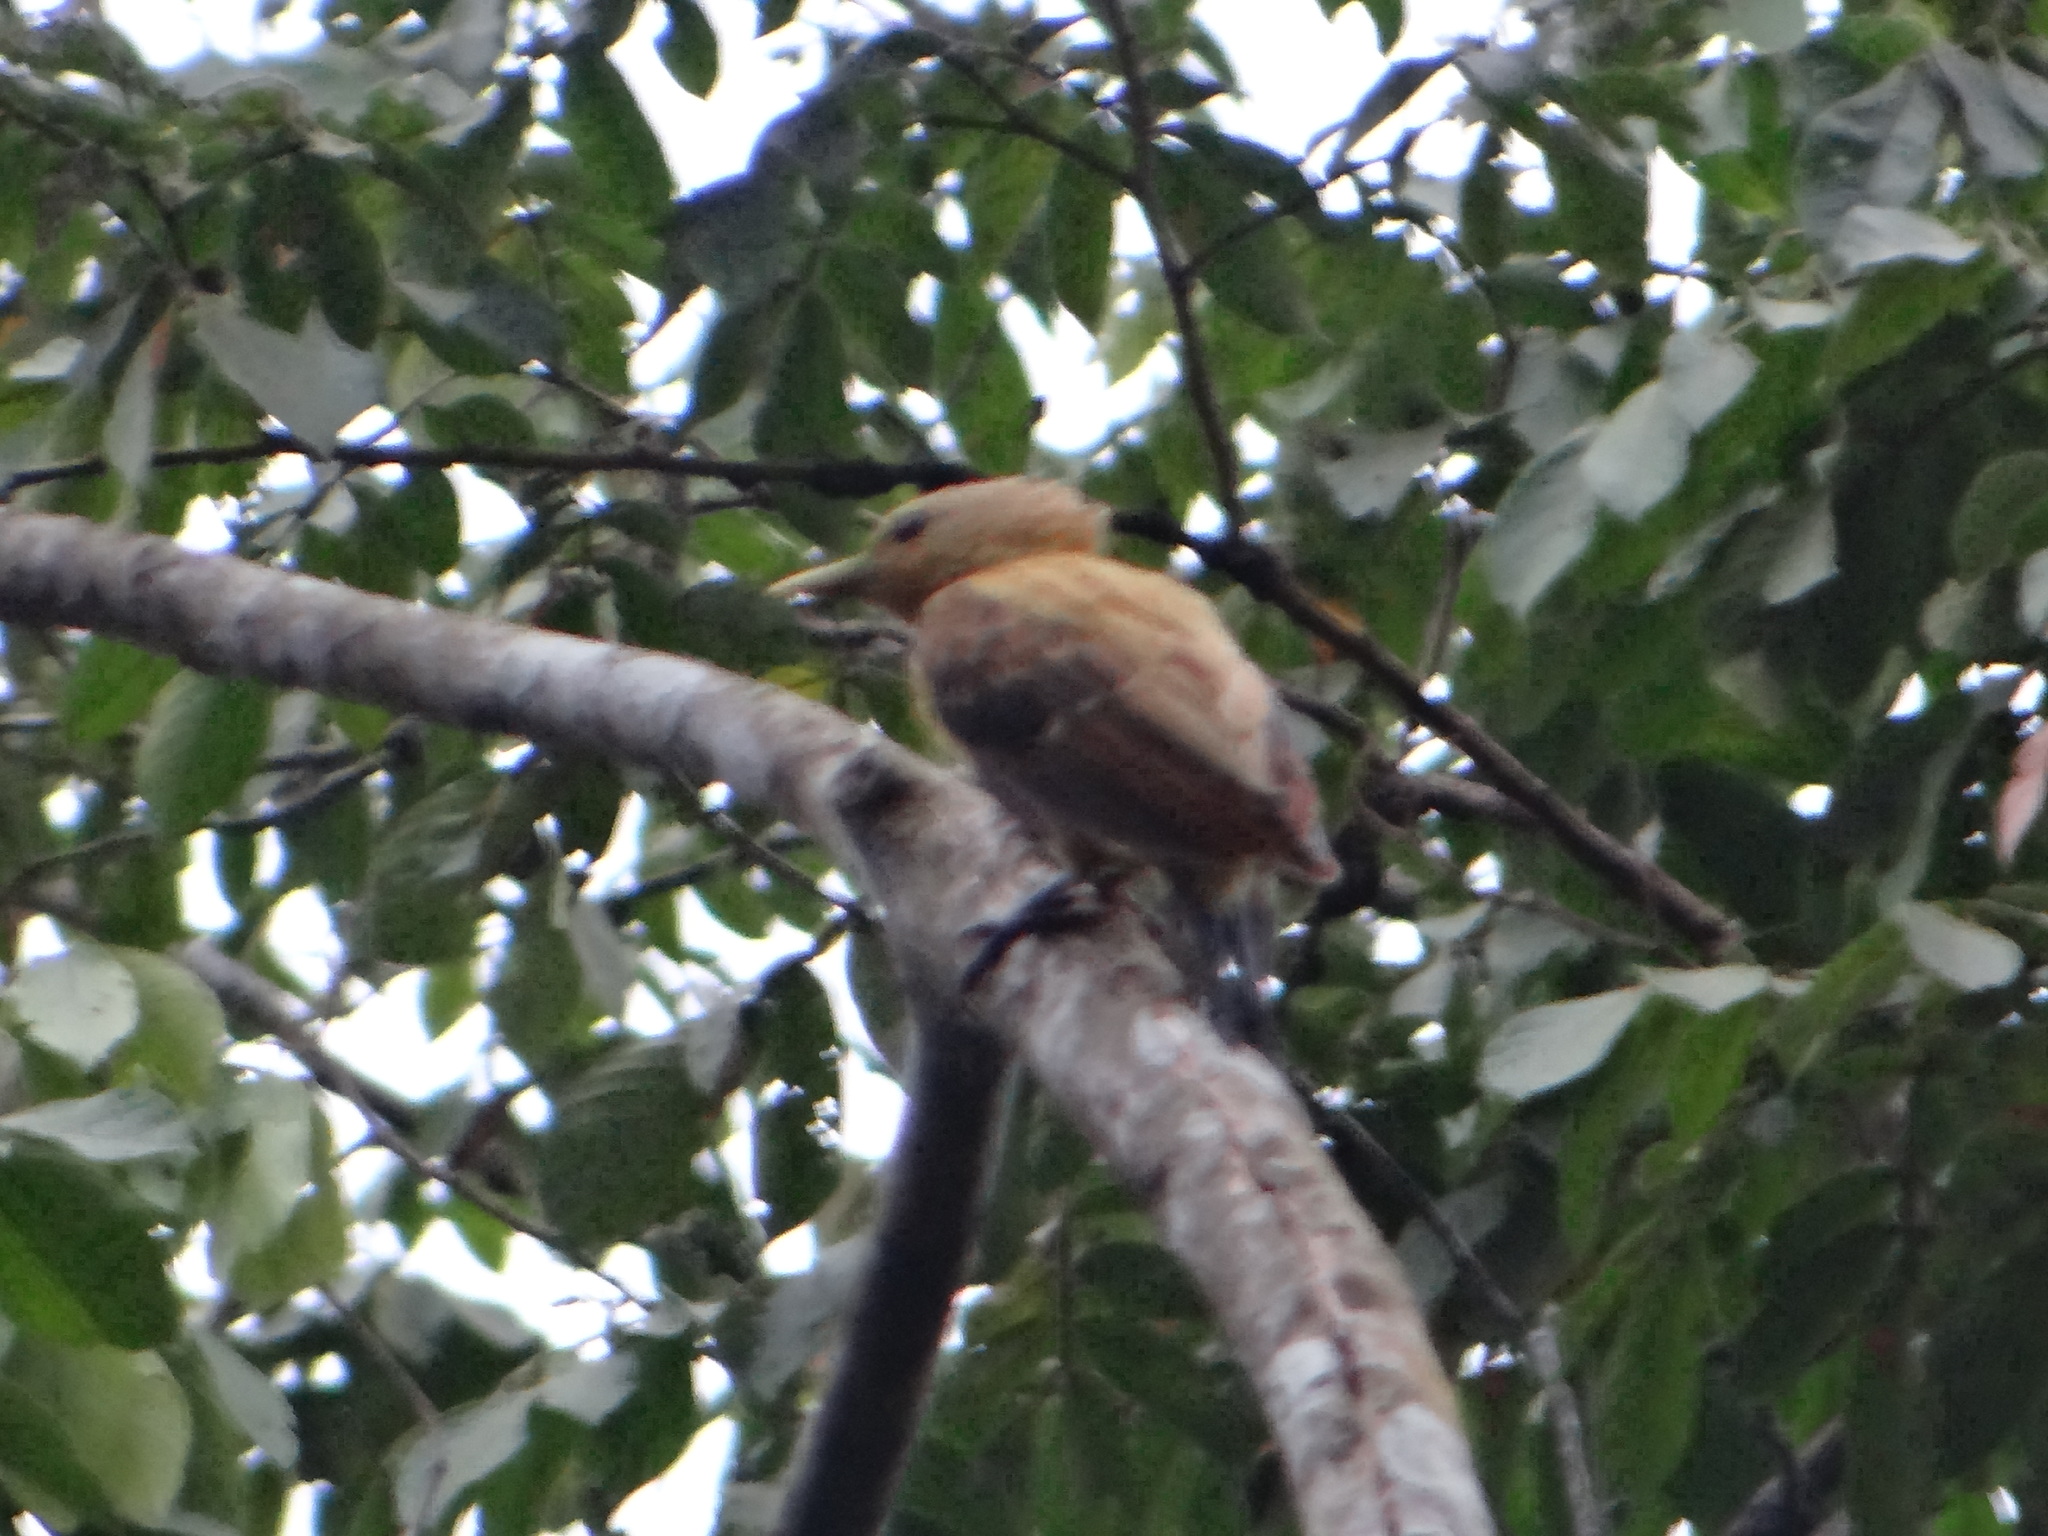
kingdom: Animalia
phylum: Chordata
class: Aves
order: Piciformes
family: Picidae
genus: Celeus
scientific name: Celeus flavus
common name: Cream-colored woodpecker
